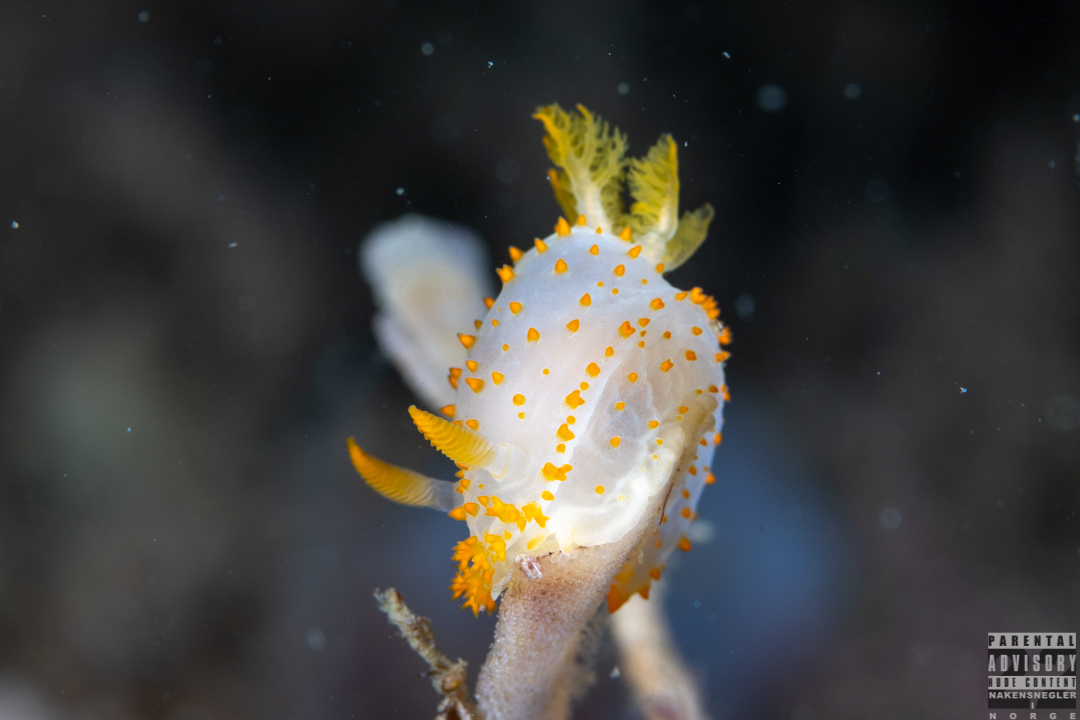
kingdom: Animalia
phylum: Mollusca
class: Gastropoda
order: Nudibranchia
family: Polyceridae
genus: Crimora
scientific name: Crimora papillata
